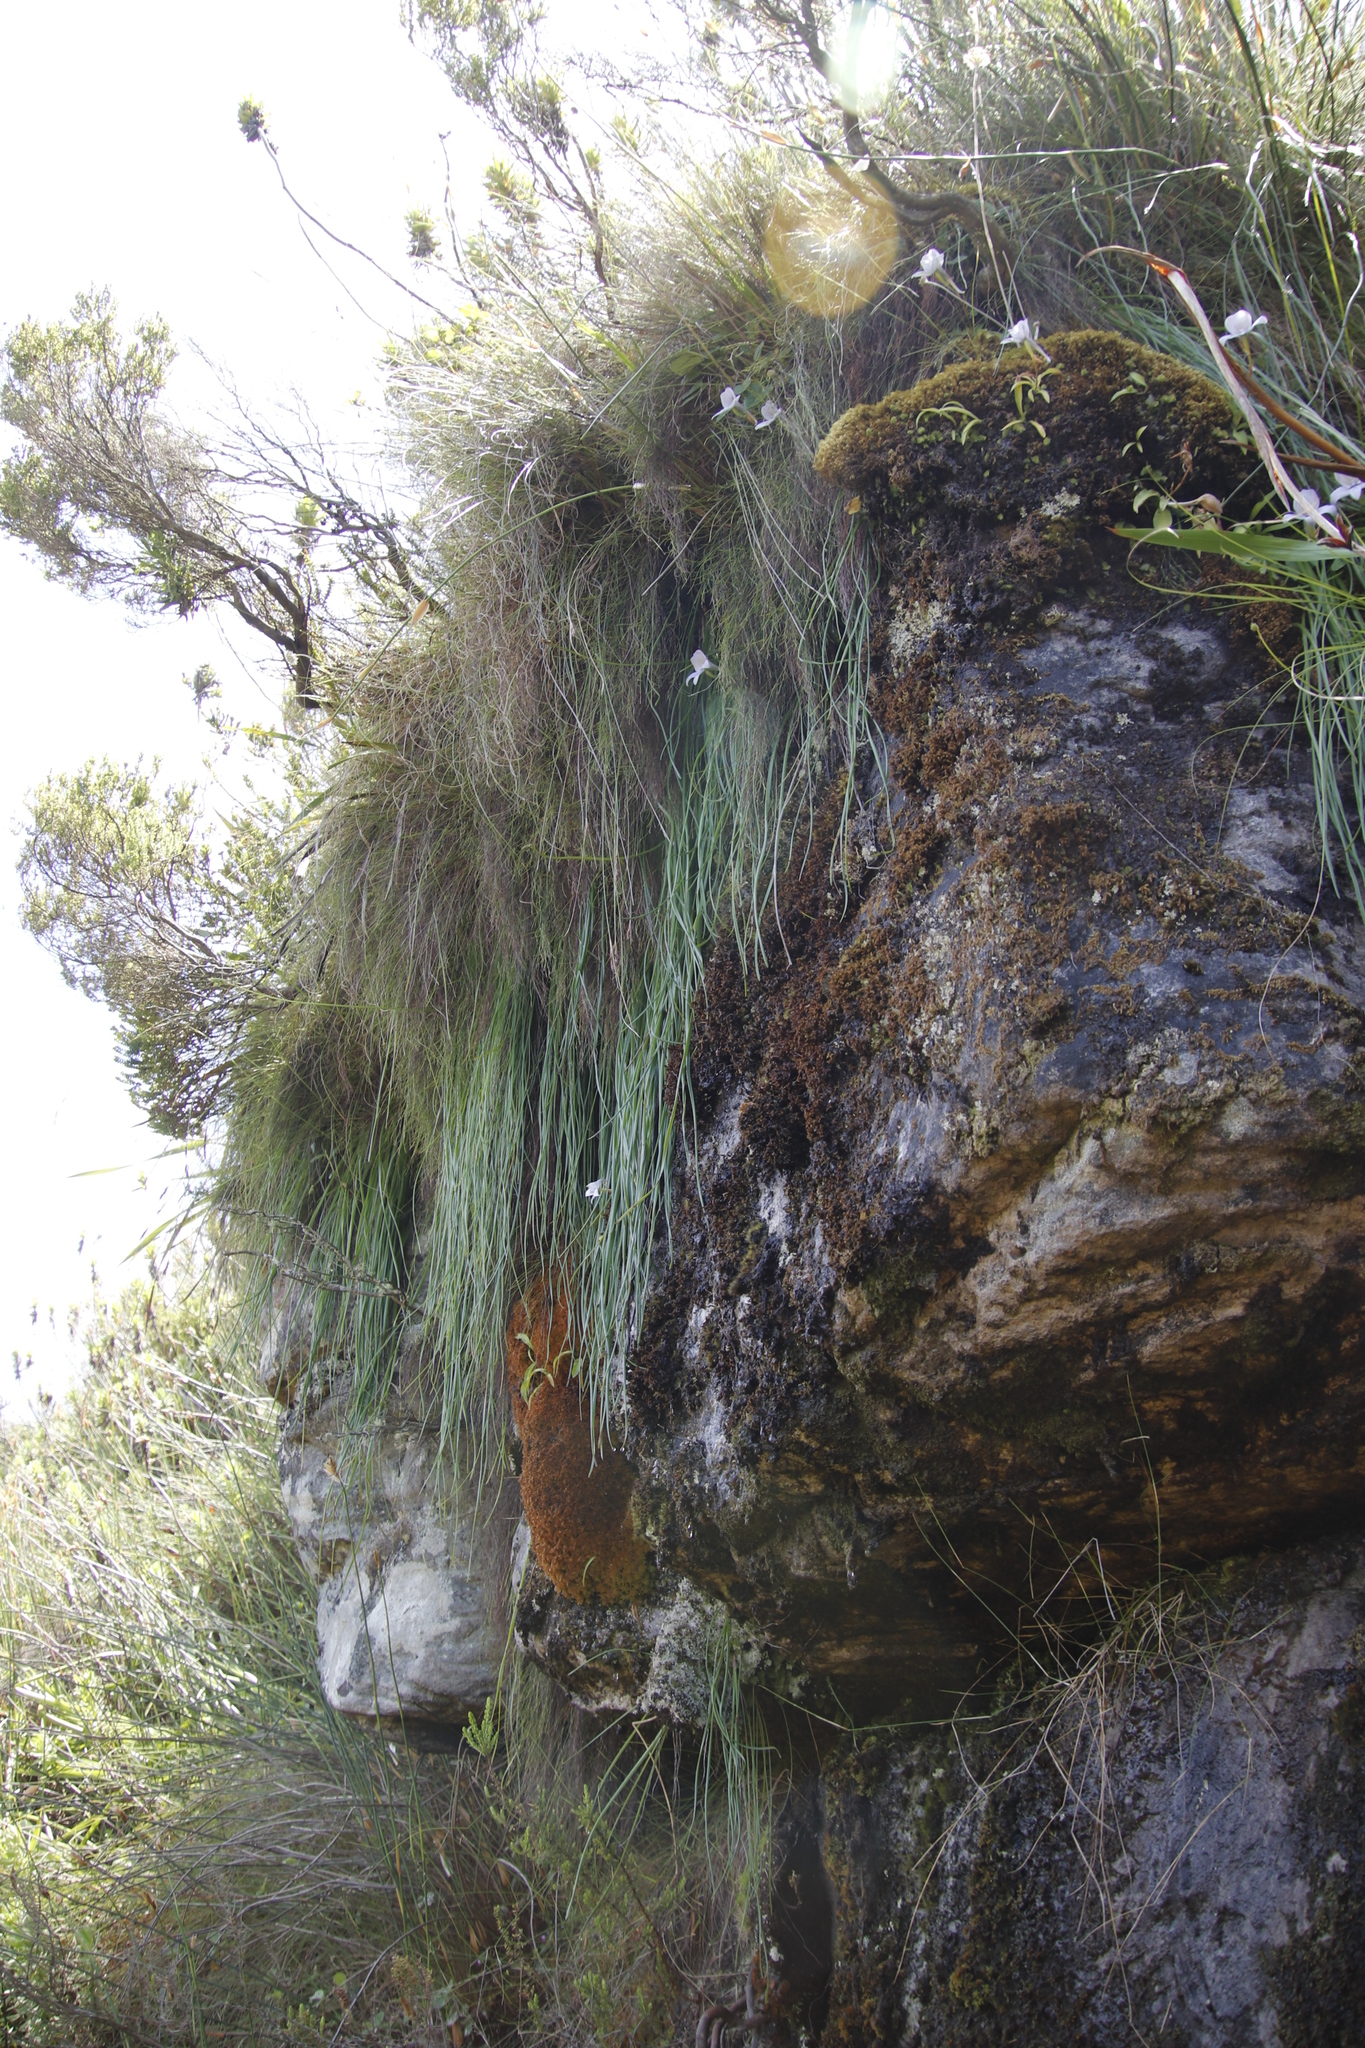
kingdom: Plantae
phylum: Tracheophyta
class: Liliopsida
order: Asparagales
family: Asphodelaceae
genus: Trachyandra
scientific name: Trachyandra tabularis
